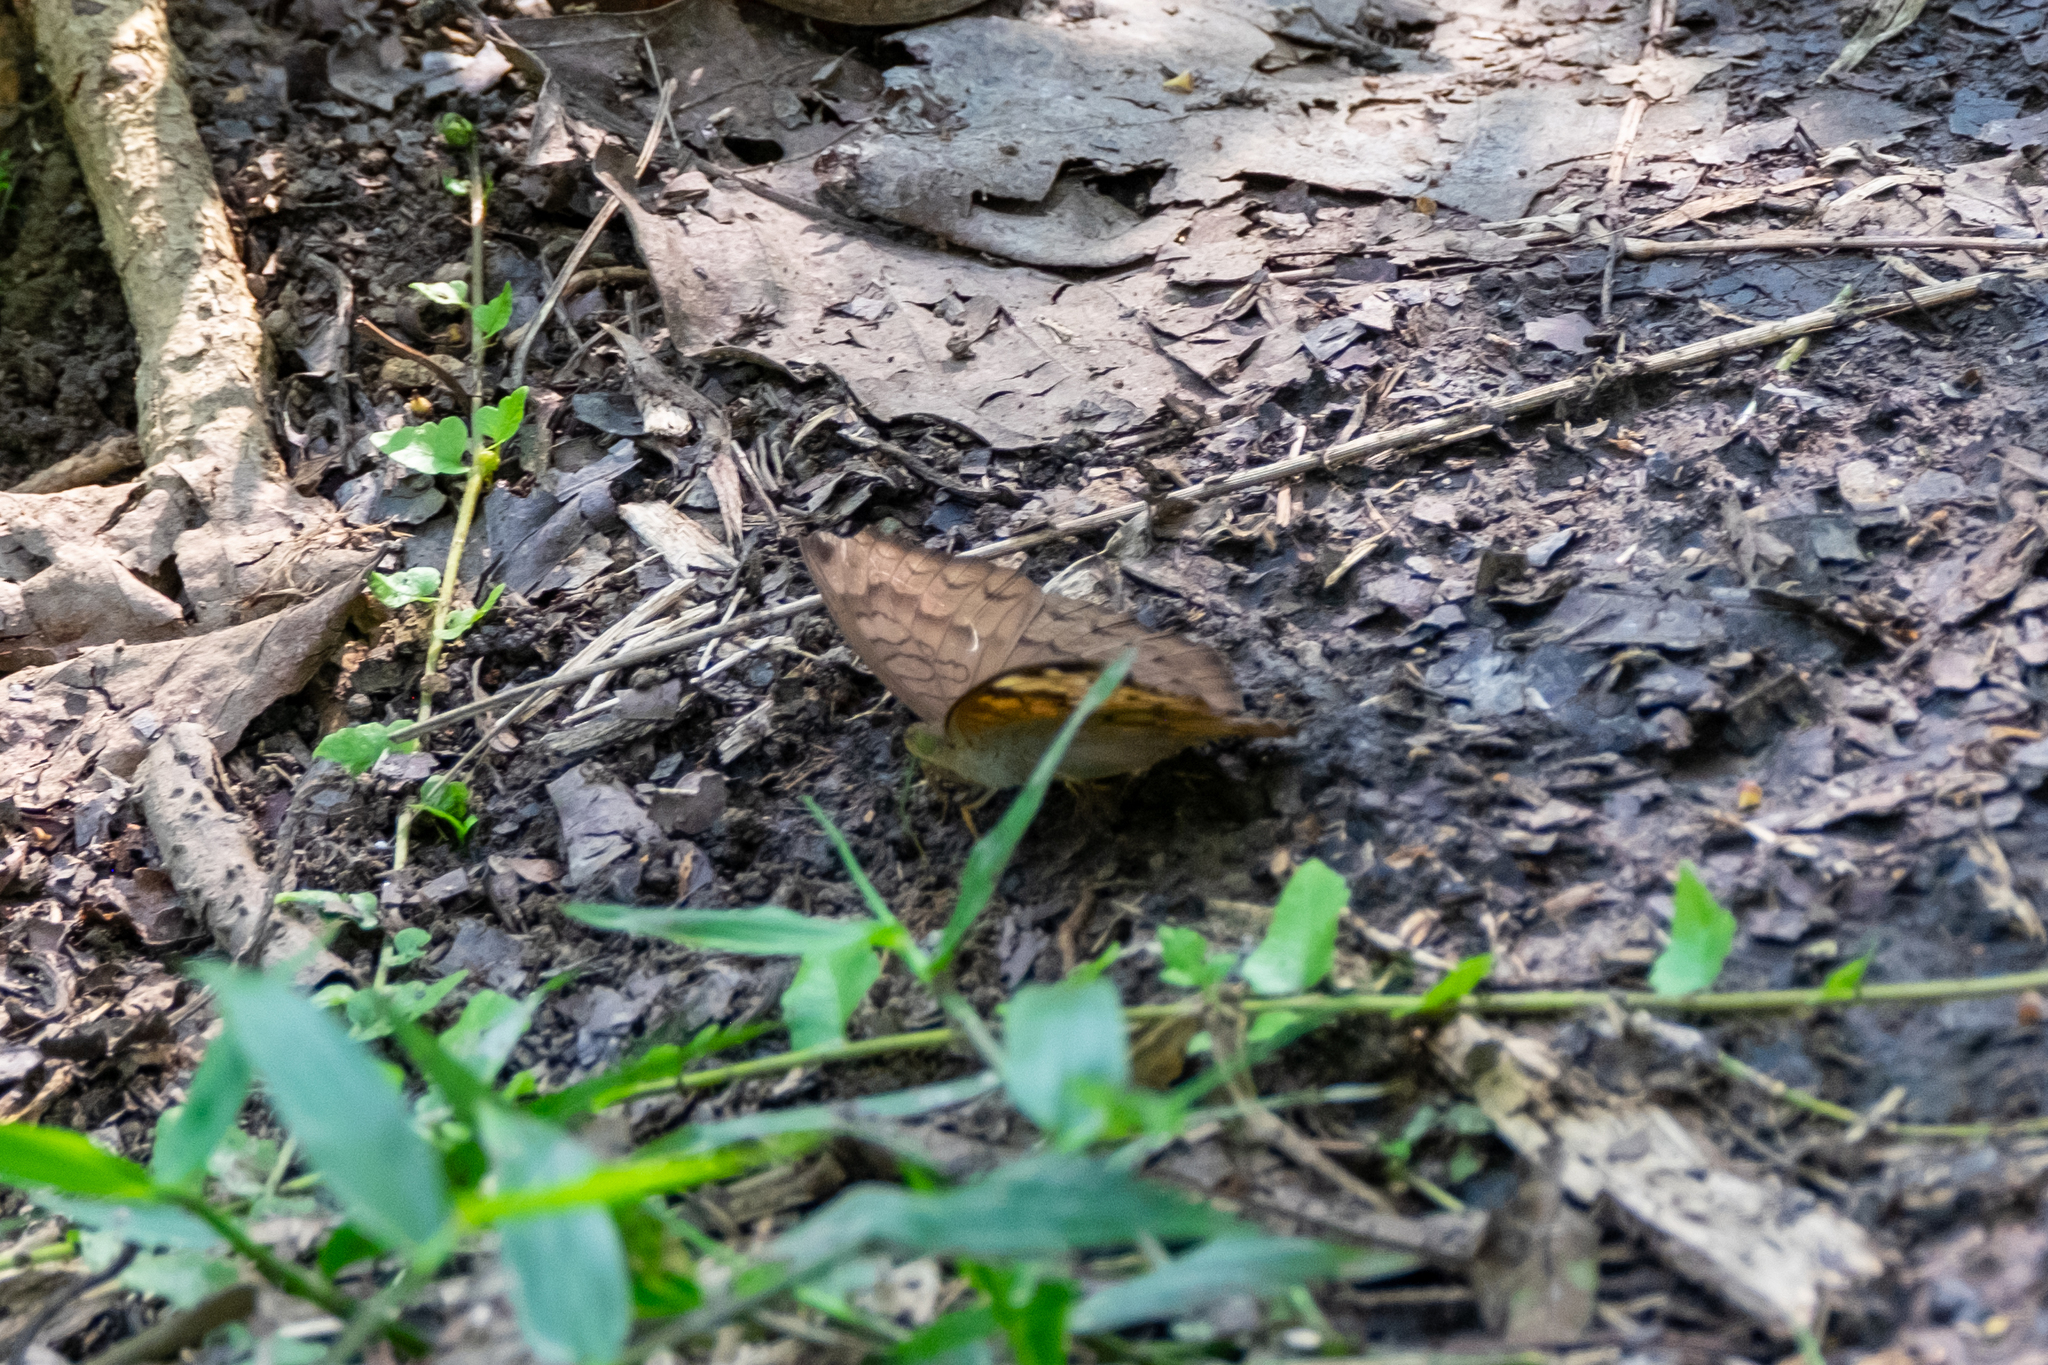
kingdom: Animalia
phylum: Arthropoda
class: Insecta
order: Lepidoptera
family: Nymphalidae
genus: Tanaecia
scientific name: Tanaecia jahnu
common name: Plain earl
